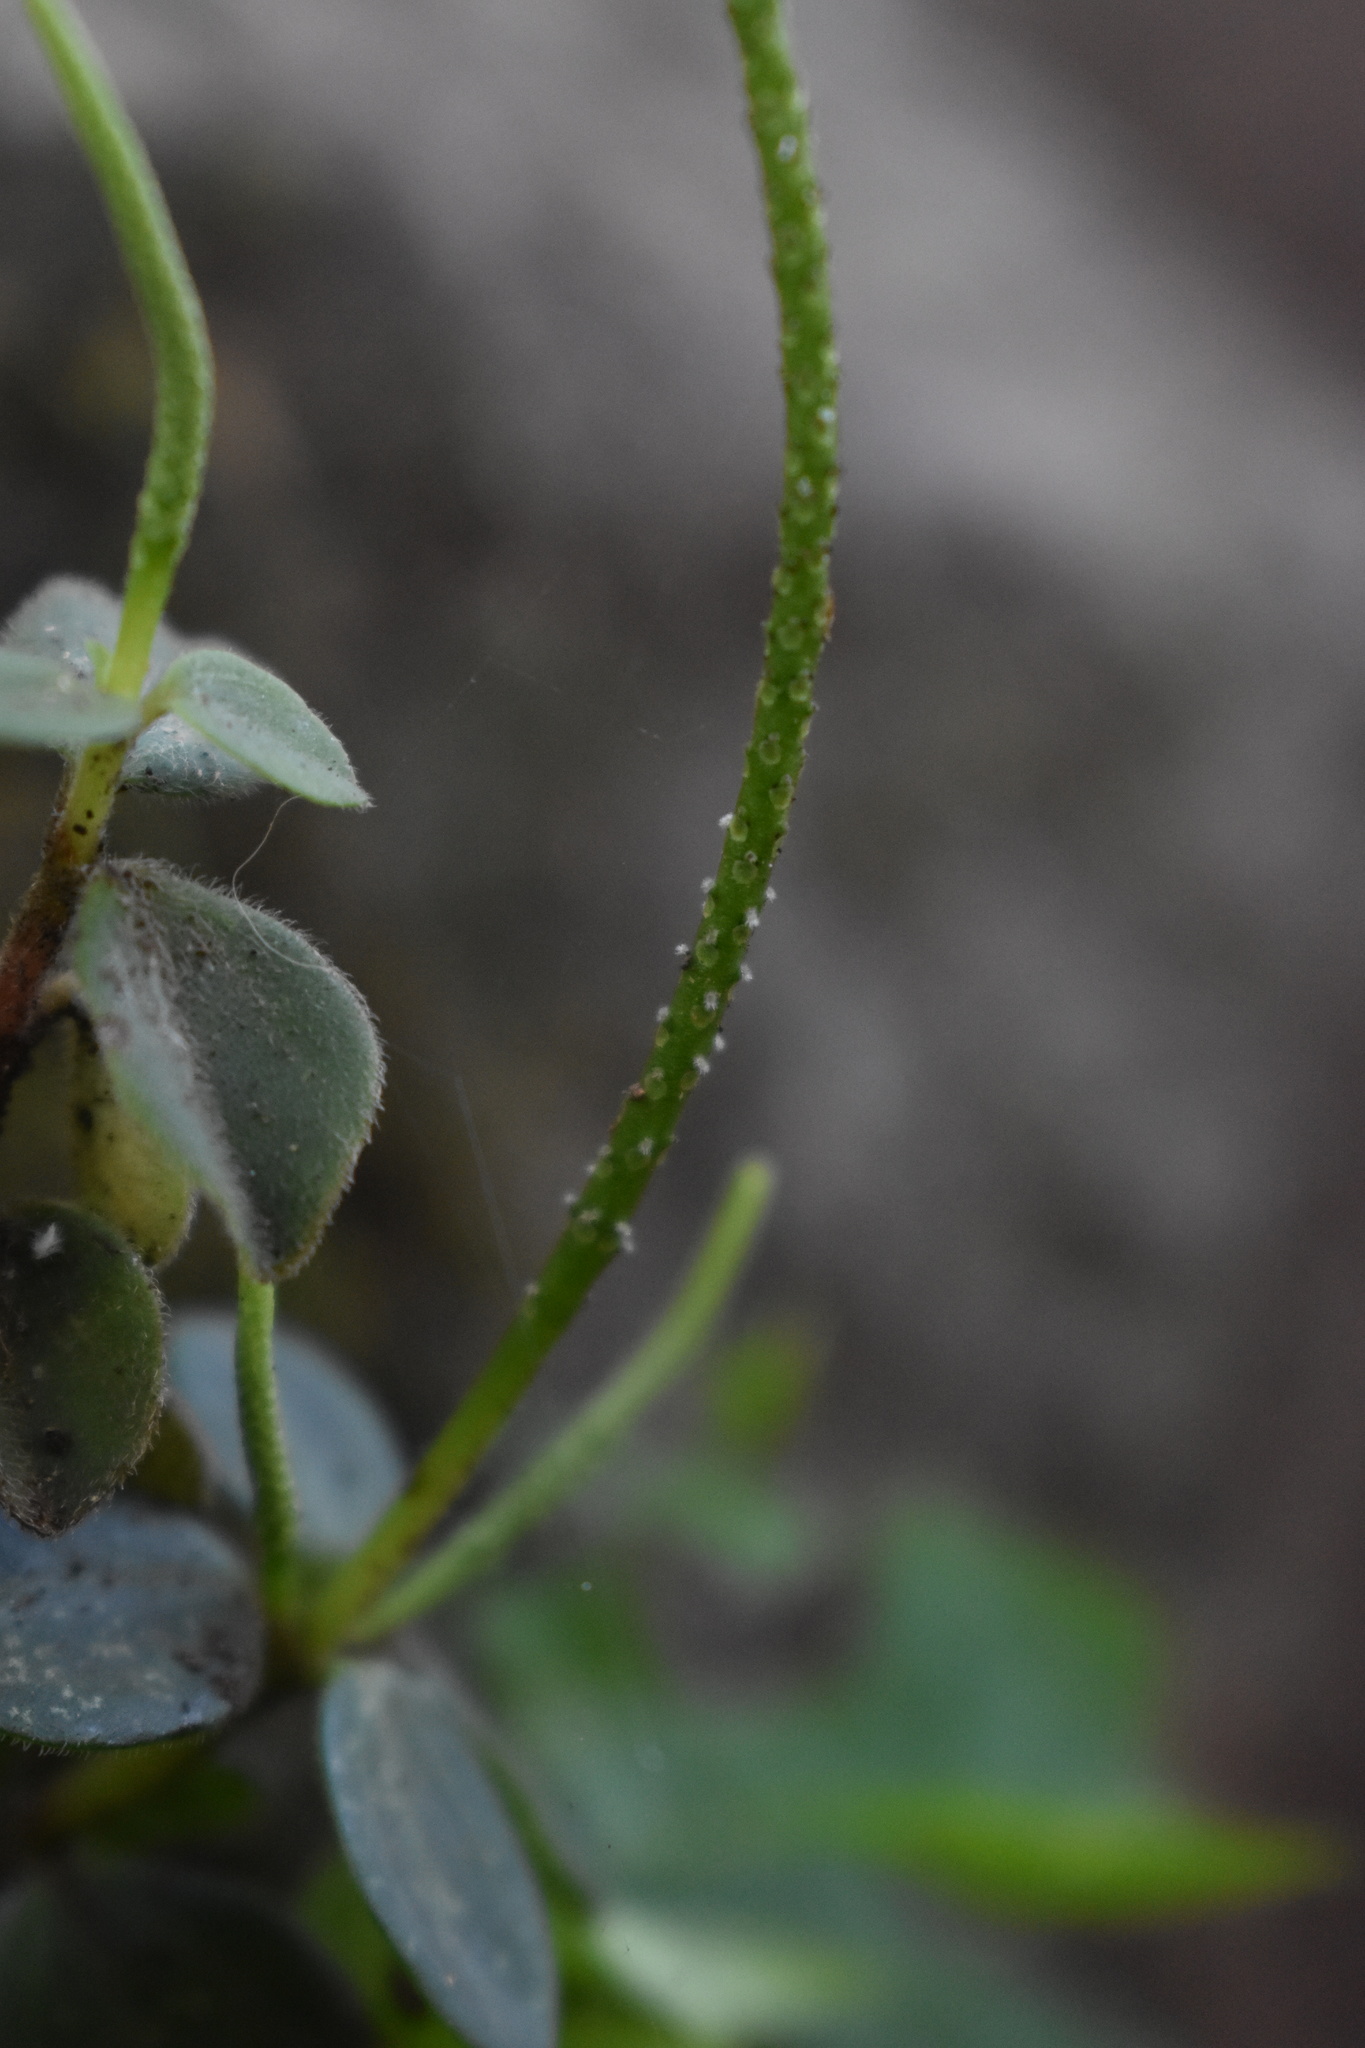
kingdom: Plantae
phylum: Tracheophyta
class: Magnoliopsida
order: Piperales
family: Piperaceae
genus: Peperomia
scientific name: Peperomia increscens
